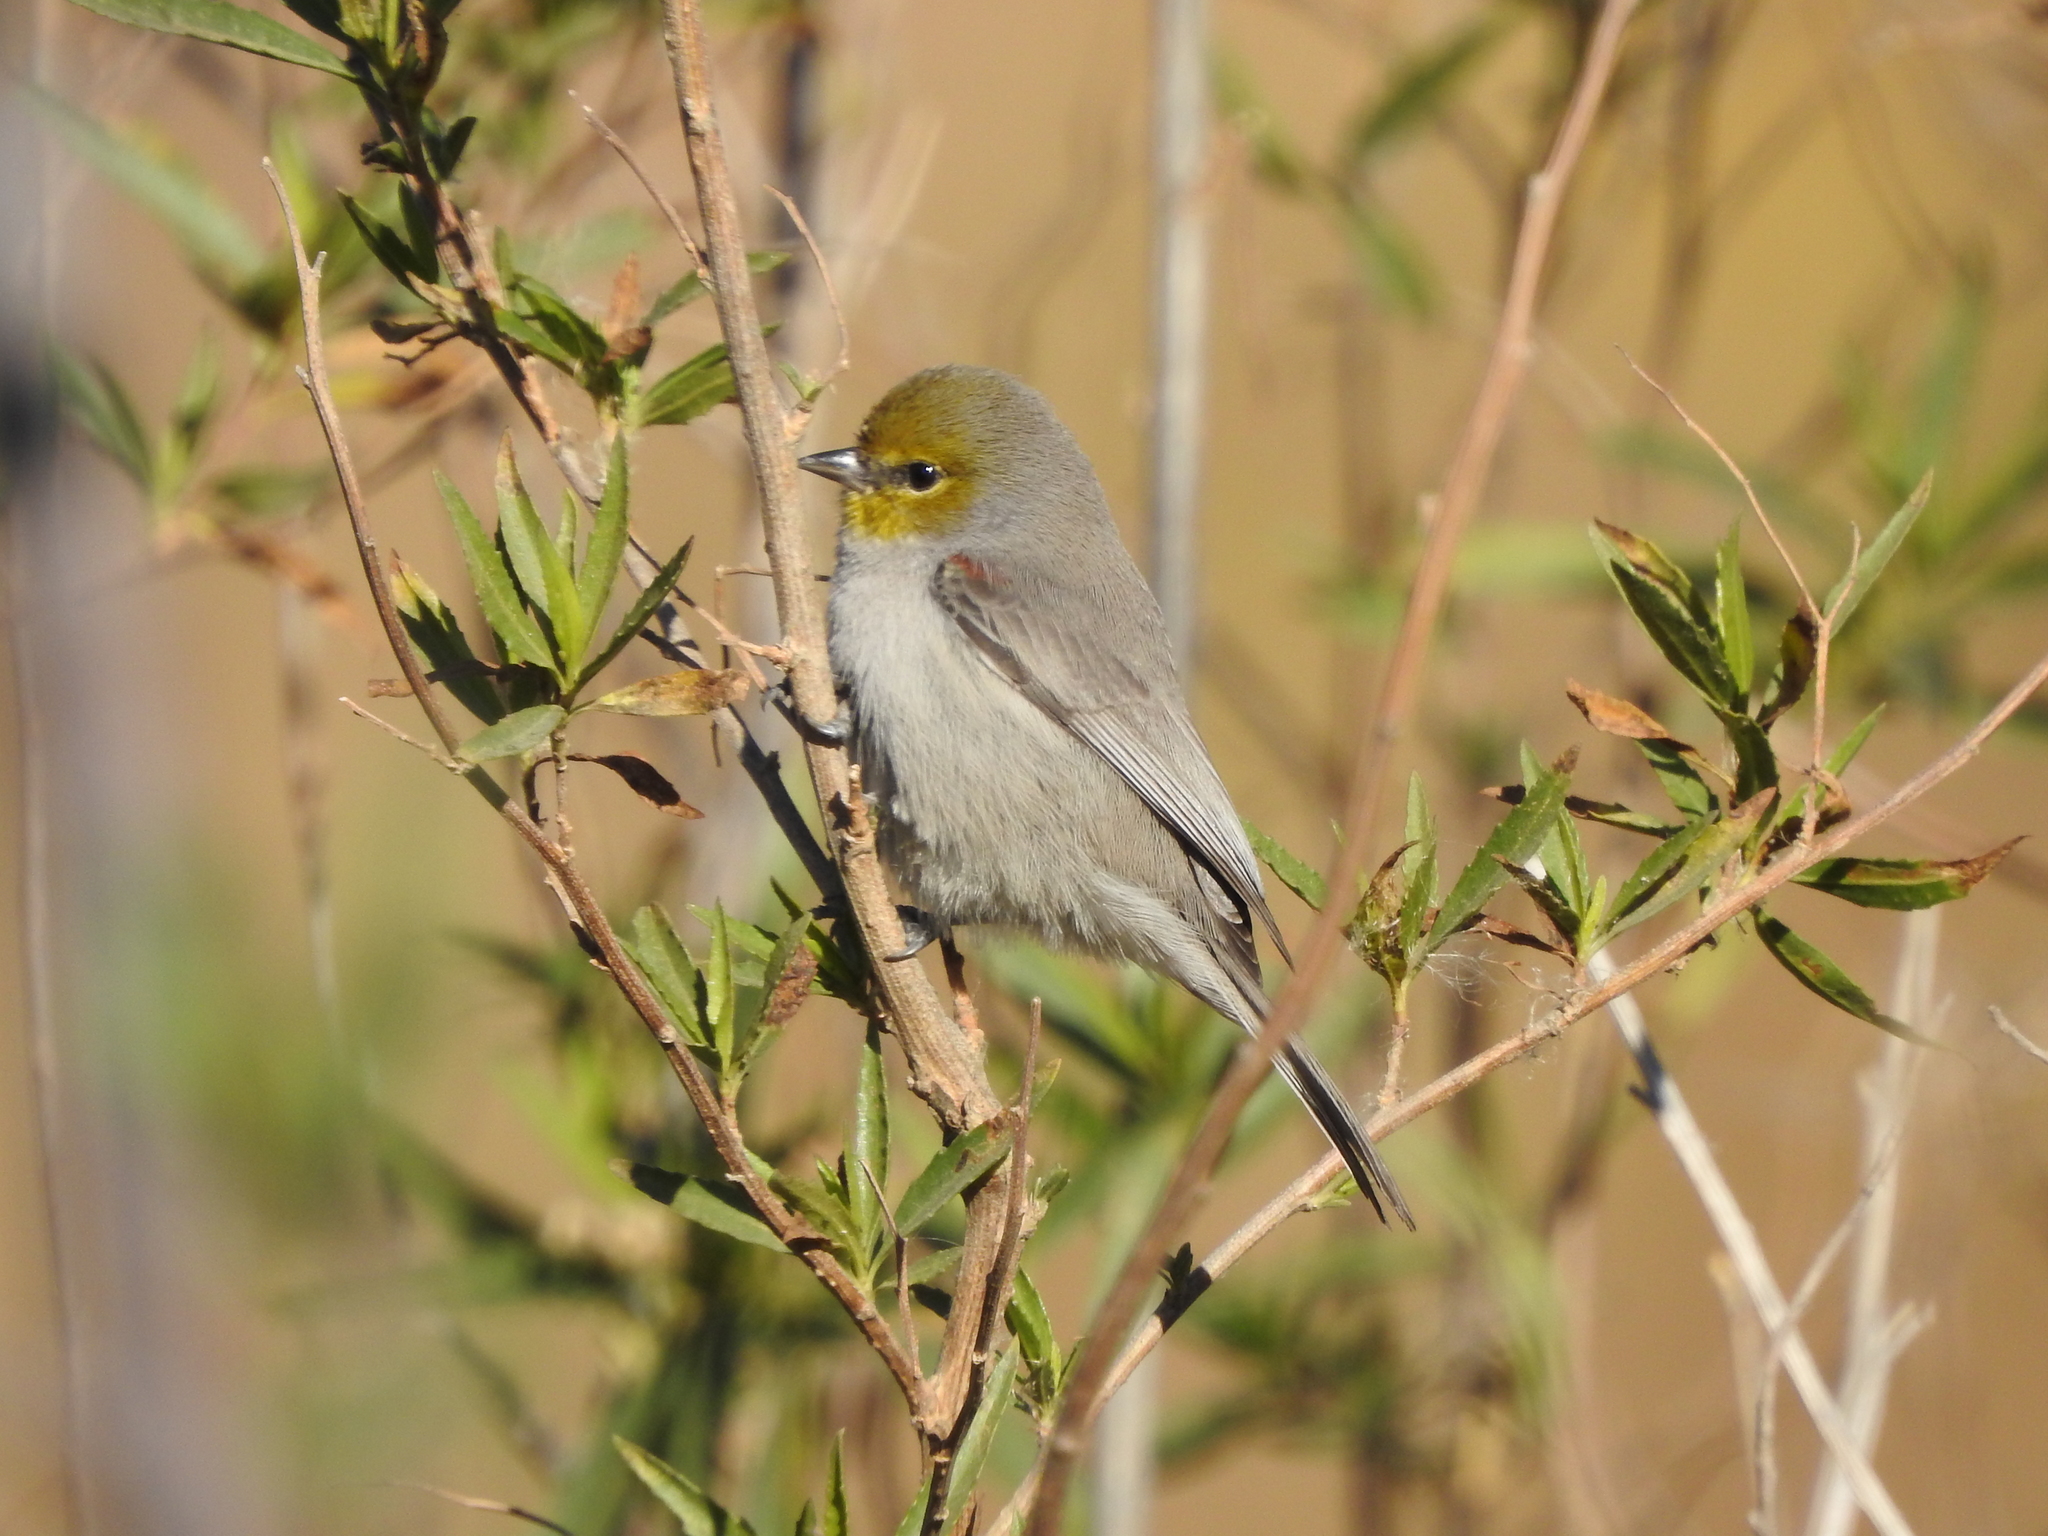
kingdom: Animalia
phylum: Chordata
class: Aves
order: Passeriformes
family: Remizidae
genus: Auriparus
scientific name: Auriparus flaviceps
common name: Verdin
